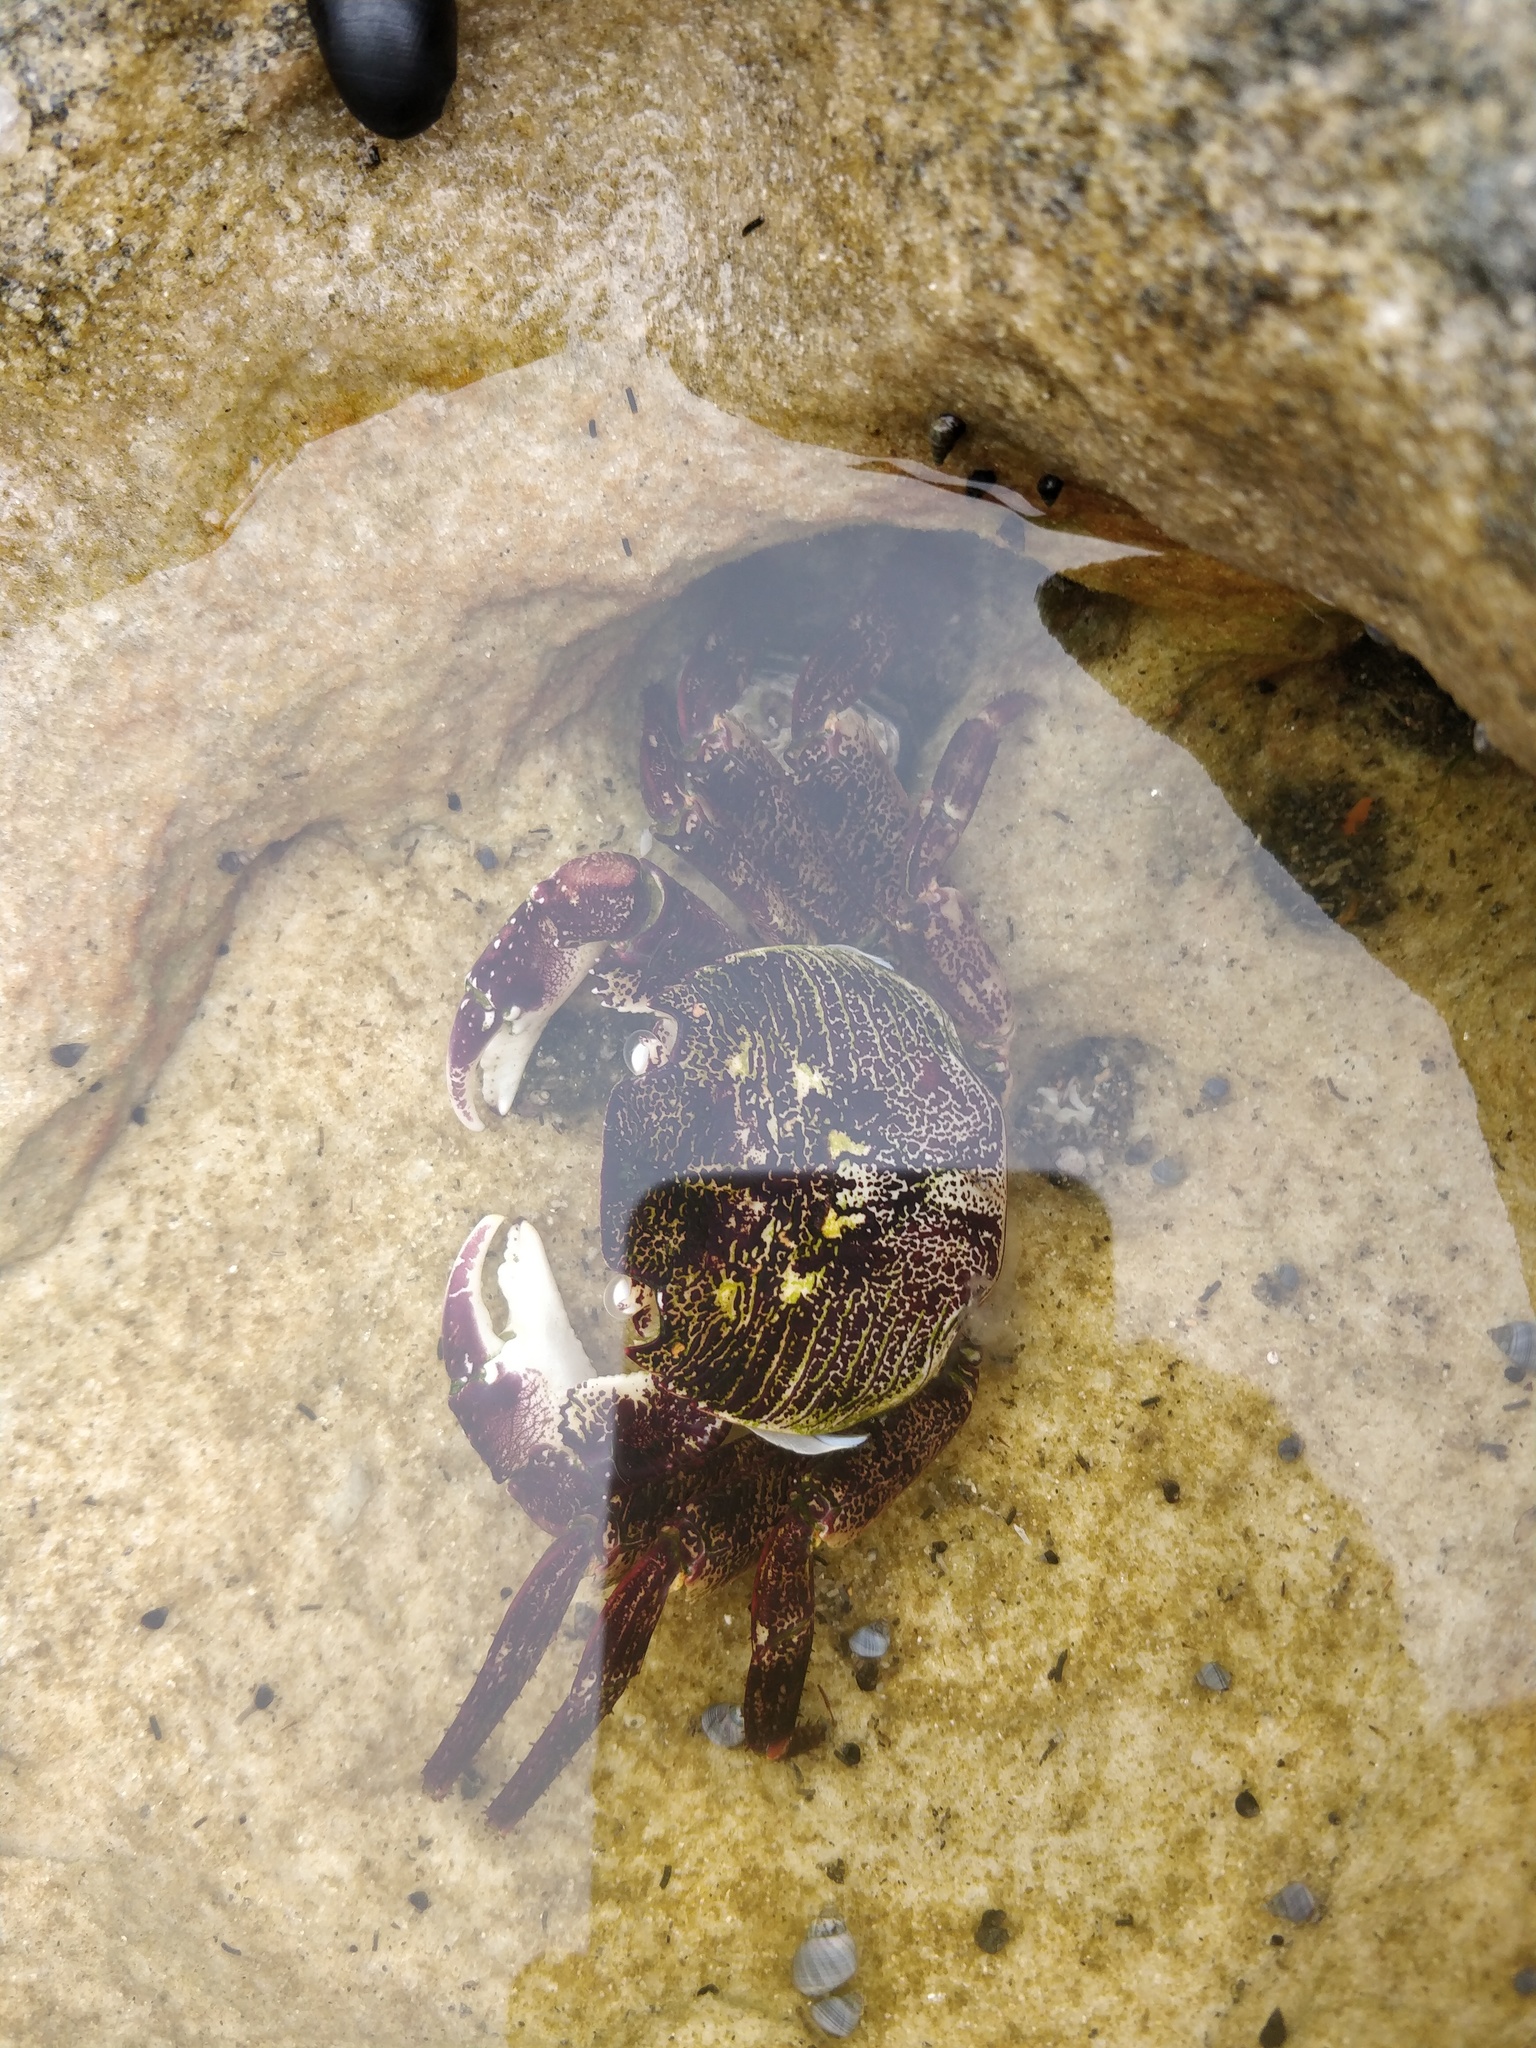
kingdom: Animalia
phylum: Arthropoda
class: Malacostraca
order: Decapoda
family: Grapsidae
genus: Leptograpsus
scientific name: Leptograpsus variegatus
